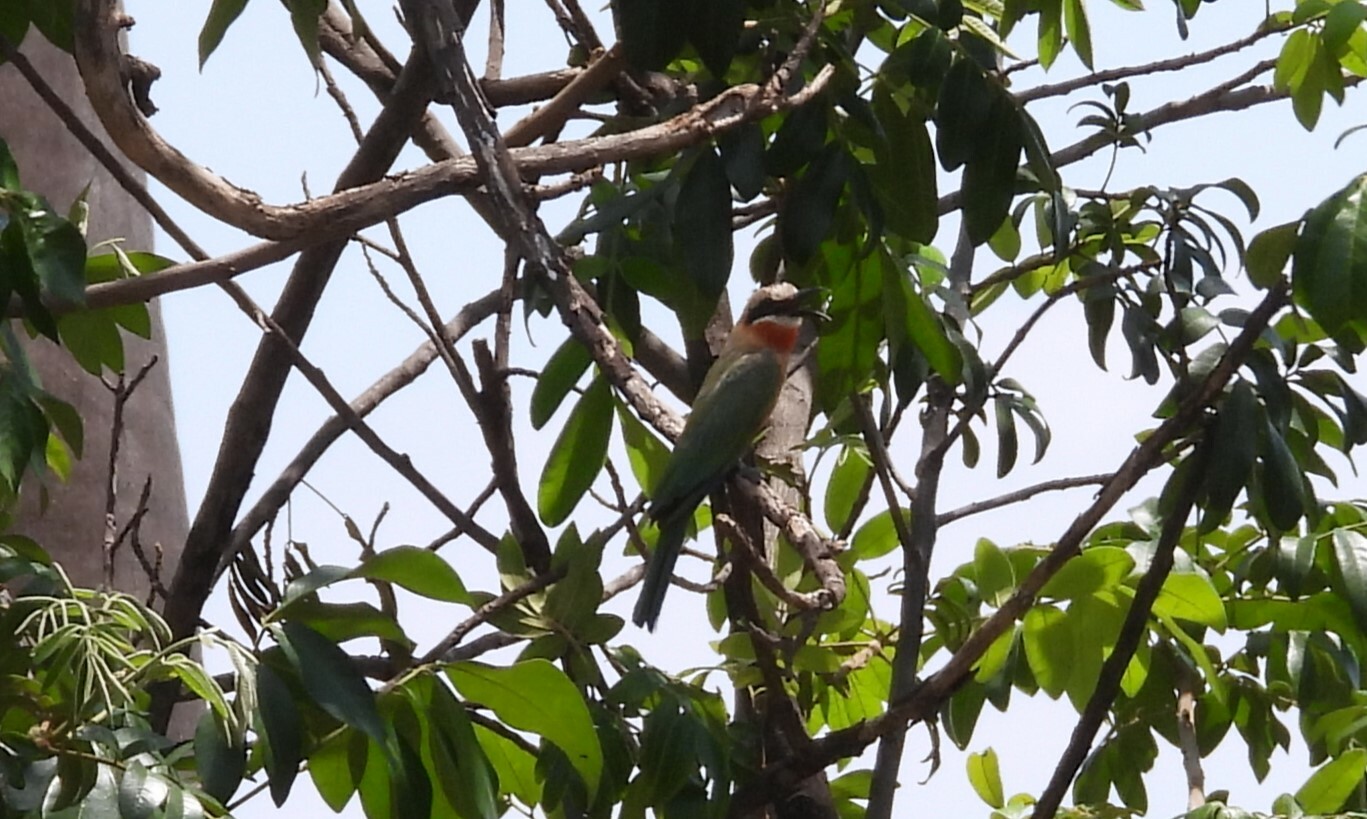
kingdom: Animalia
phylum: Chordata
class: Aves
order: Coraciiformes
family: Meropidae
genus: Merops
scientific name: Merops bullockoides
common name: White-fronted bee-eater
